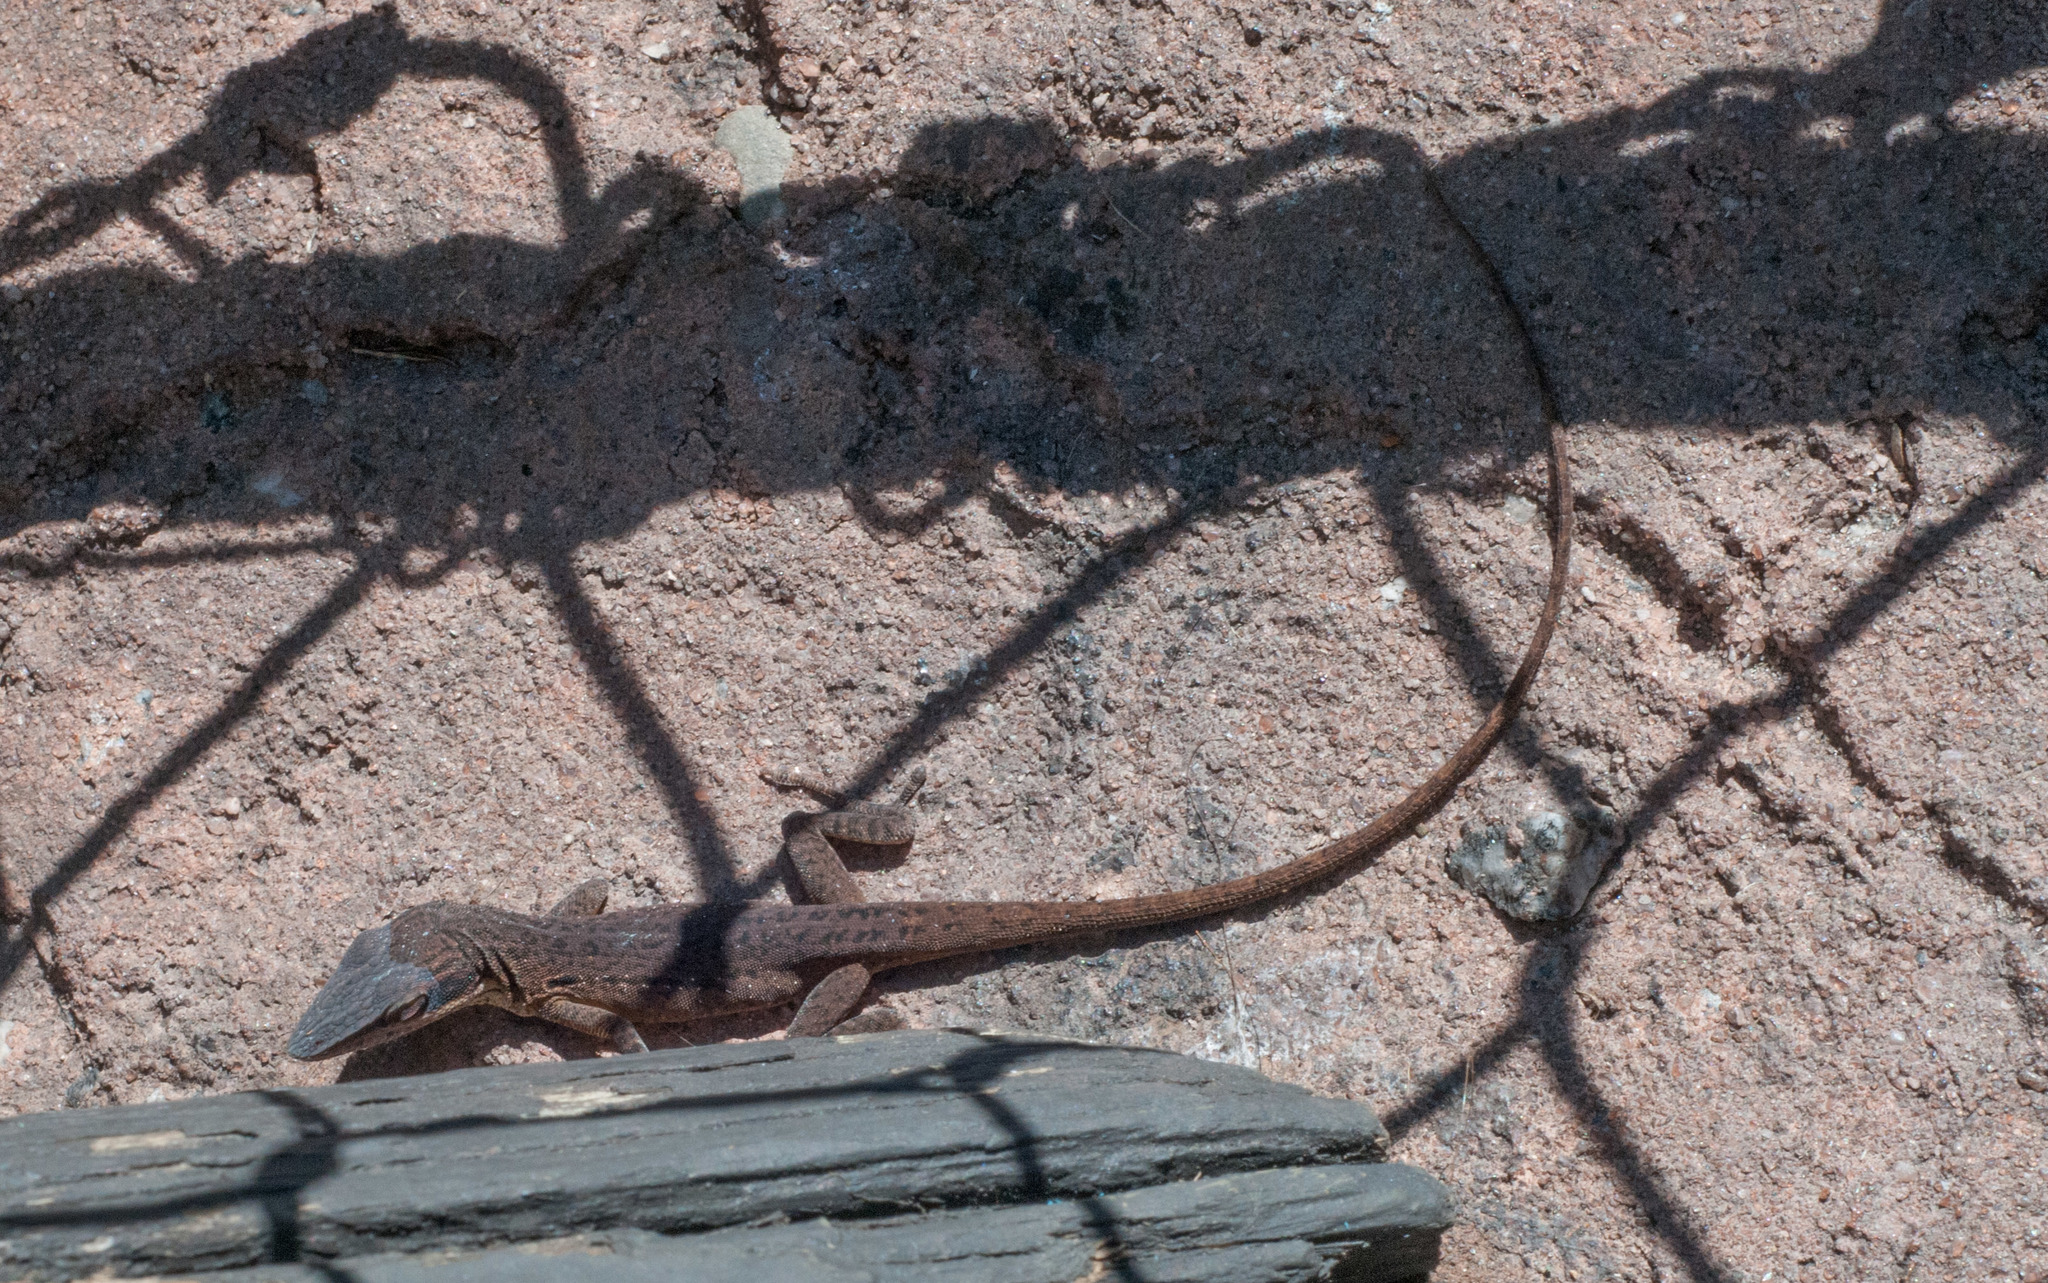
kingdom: Animalia
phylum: Chordata
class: Squamata
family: Dactyloidae
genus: Anolis
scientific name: Anolis carolinensis
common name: Green anole
